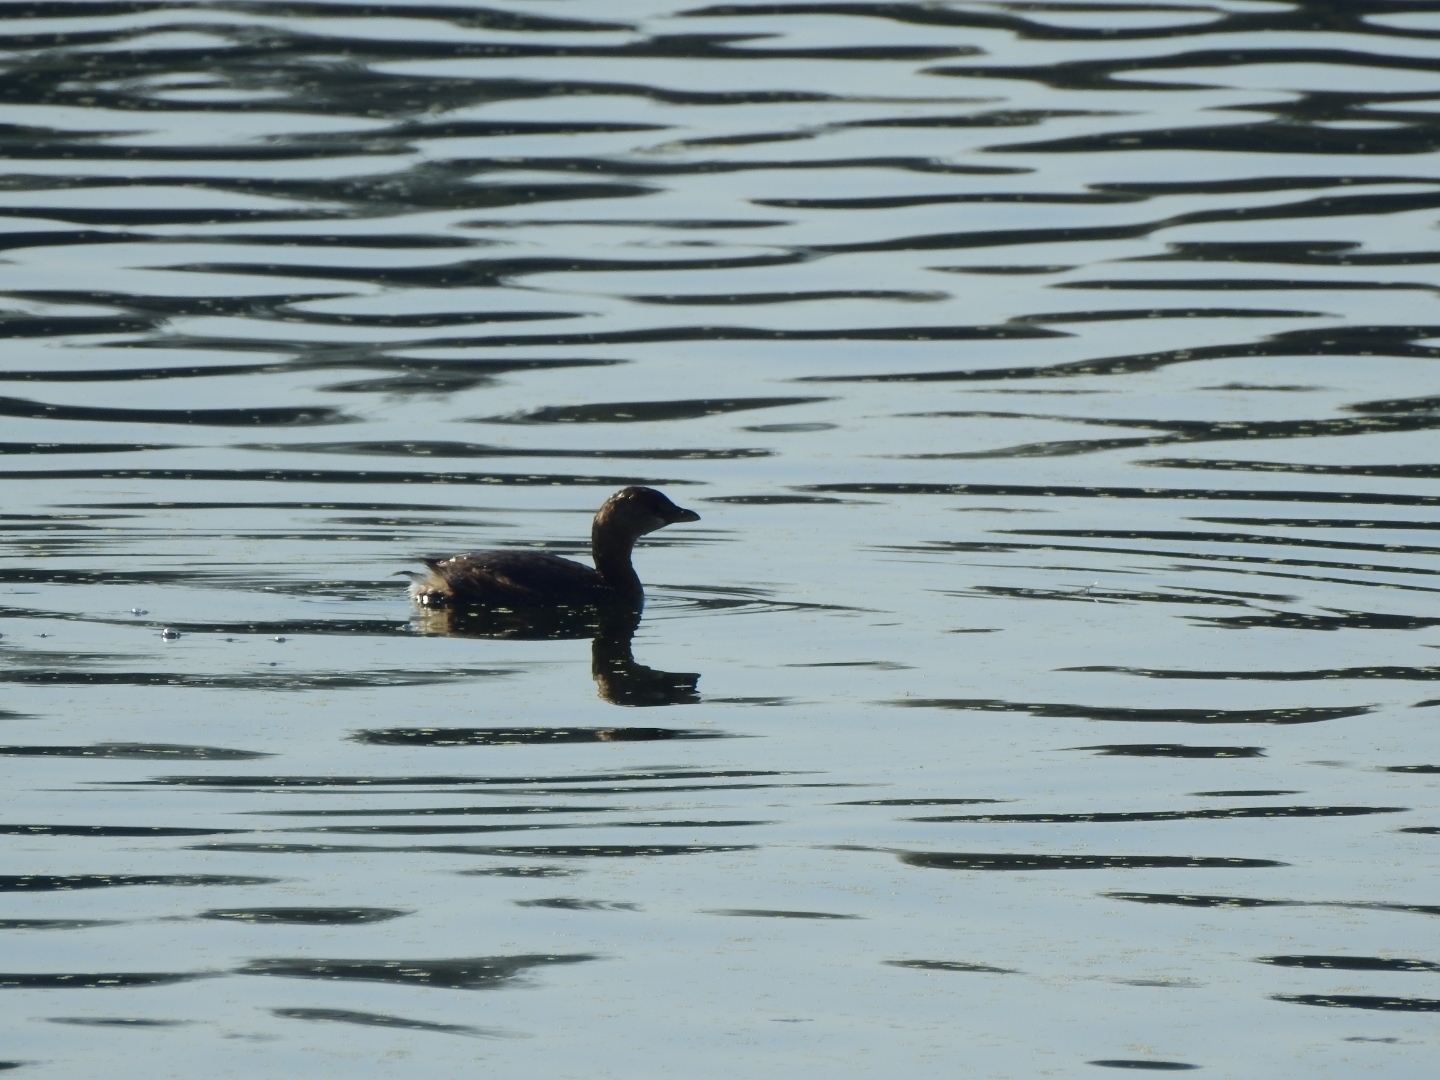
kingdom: Animalia
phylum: Chordata
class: Aves
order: Podicipediformes
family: Podicipedidae
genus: Podilymbus
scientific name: Podilymbus podiceps
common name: Pied-billed grebe
